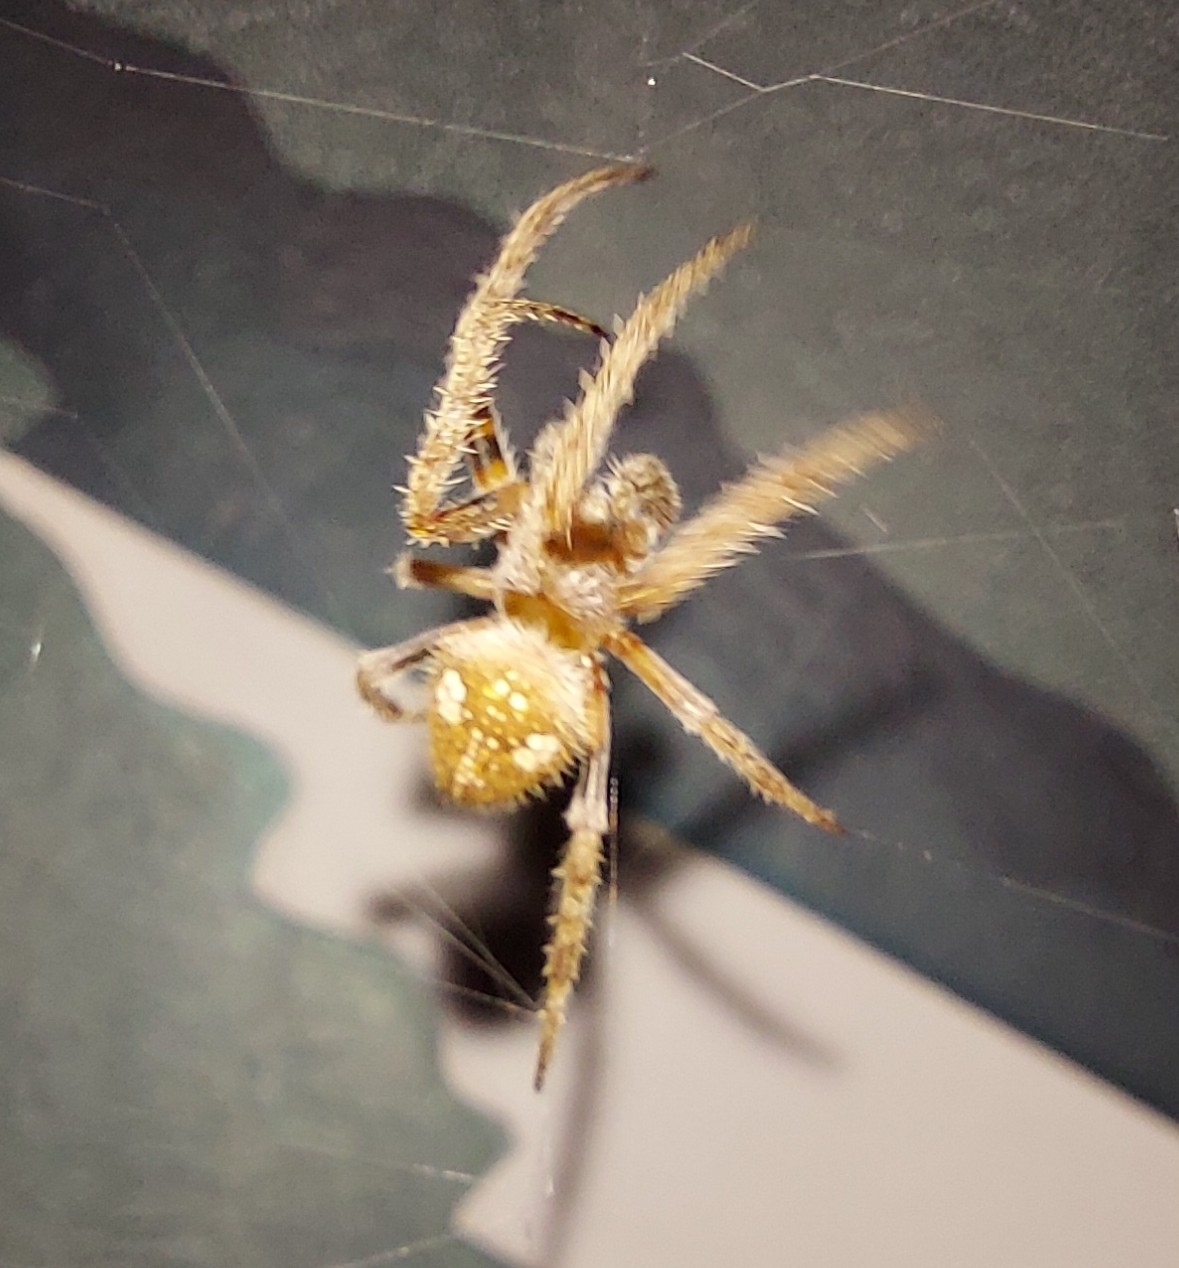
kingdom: Animalia
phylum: Arthropoda
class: Arachnida
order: Araneae
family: Araneidae
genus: Eriophora
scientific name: Eriophora ravilla
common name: Orb weavers
